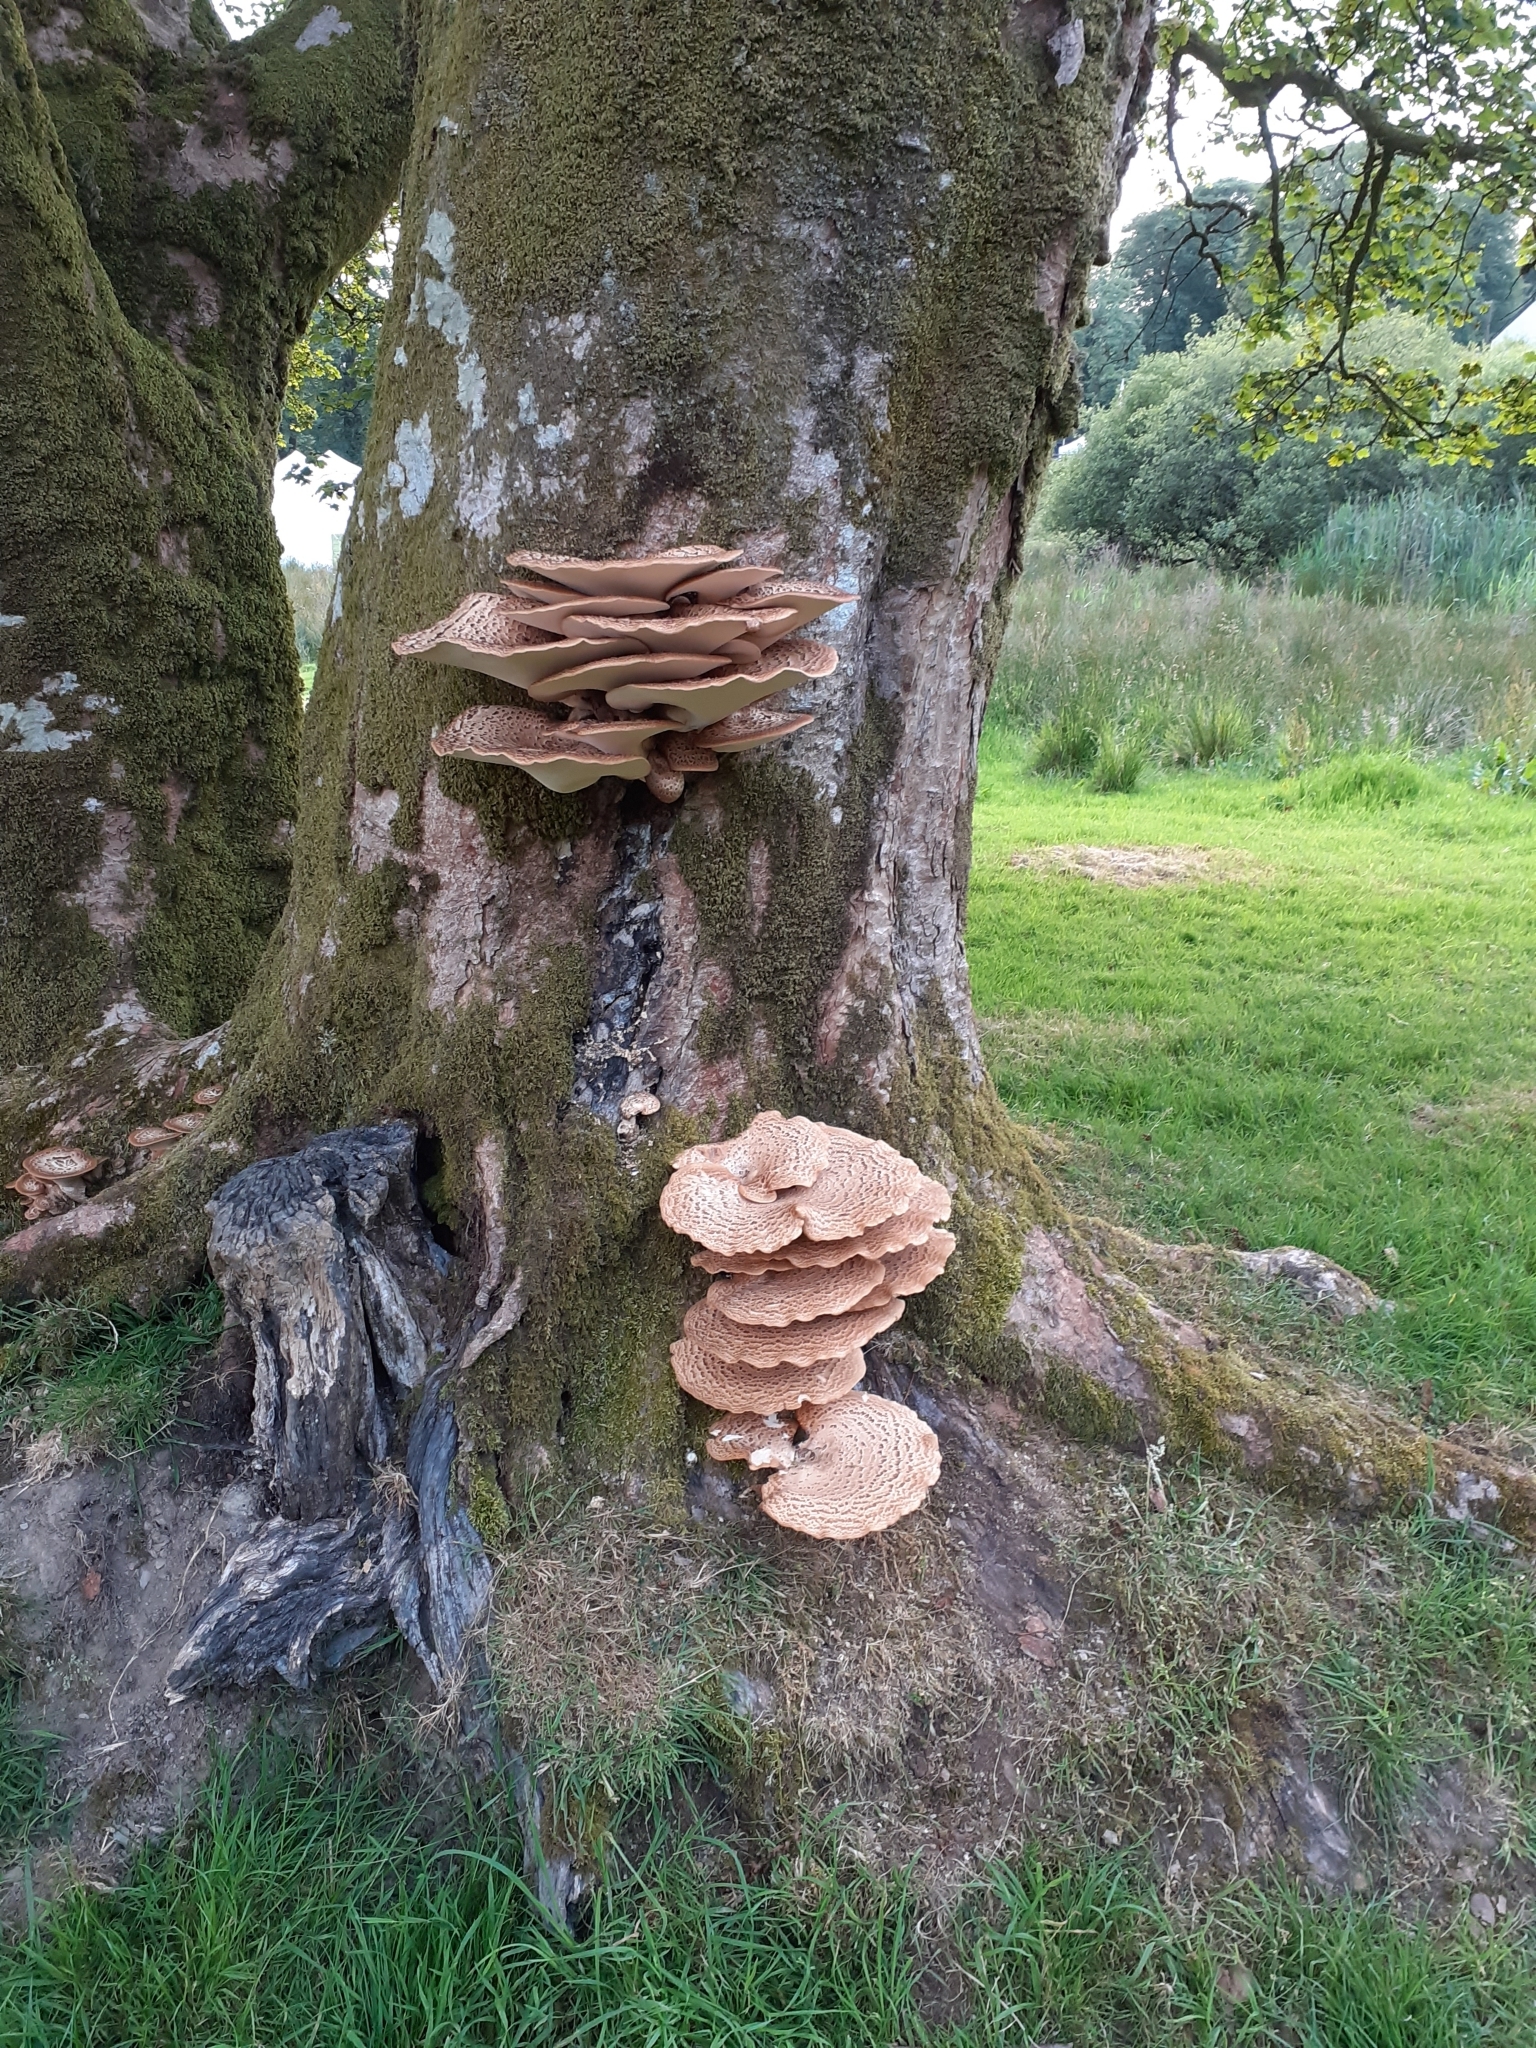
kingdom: Fungi
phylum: Basidiomycota
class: Agaricomycetes
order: Polyporales
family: Polyporaceae
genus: Cerioporus
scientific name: Cerioporus squamosus
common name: Dryad's saddle
